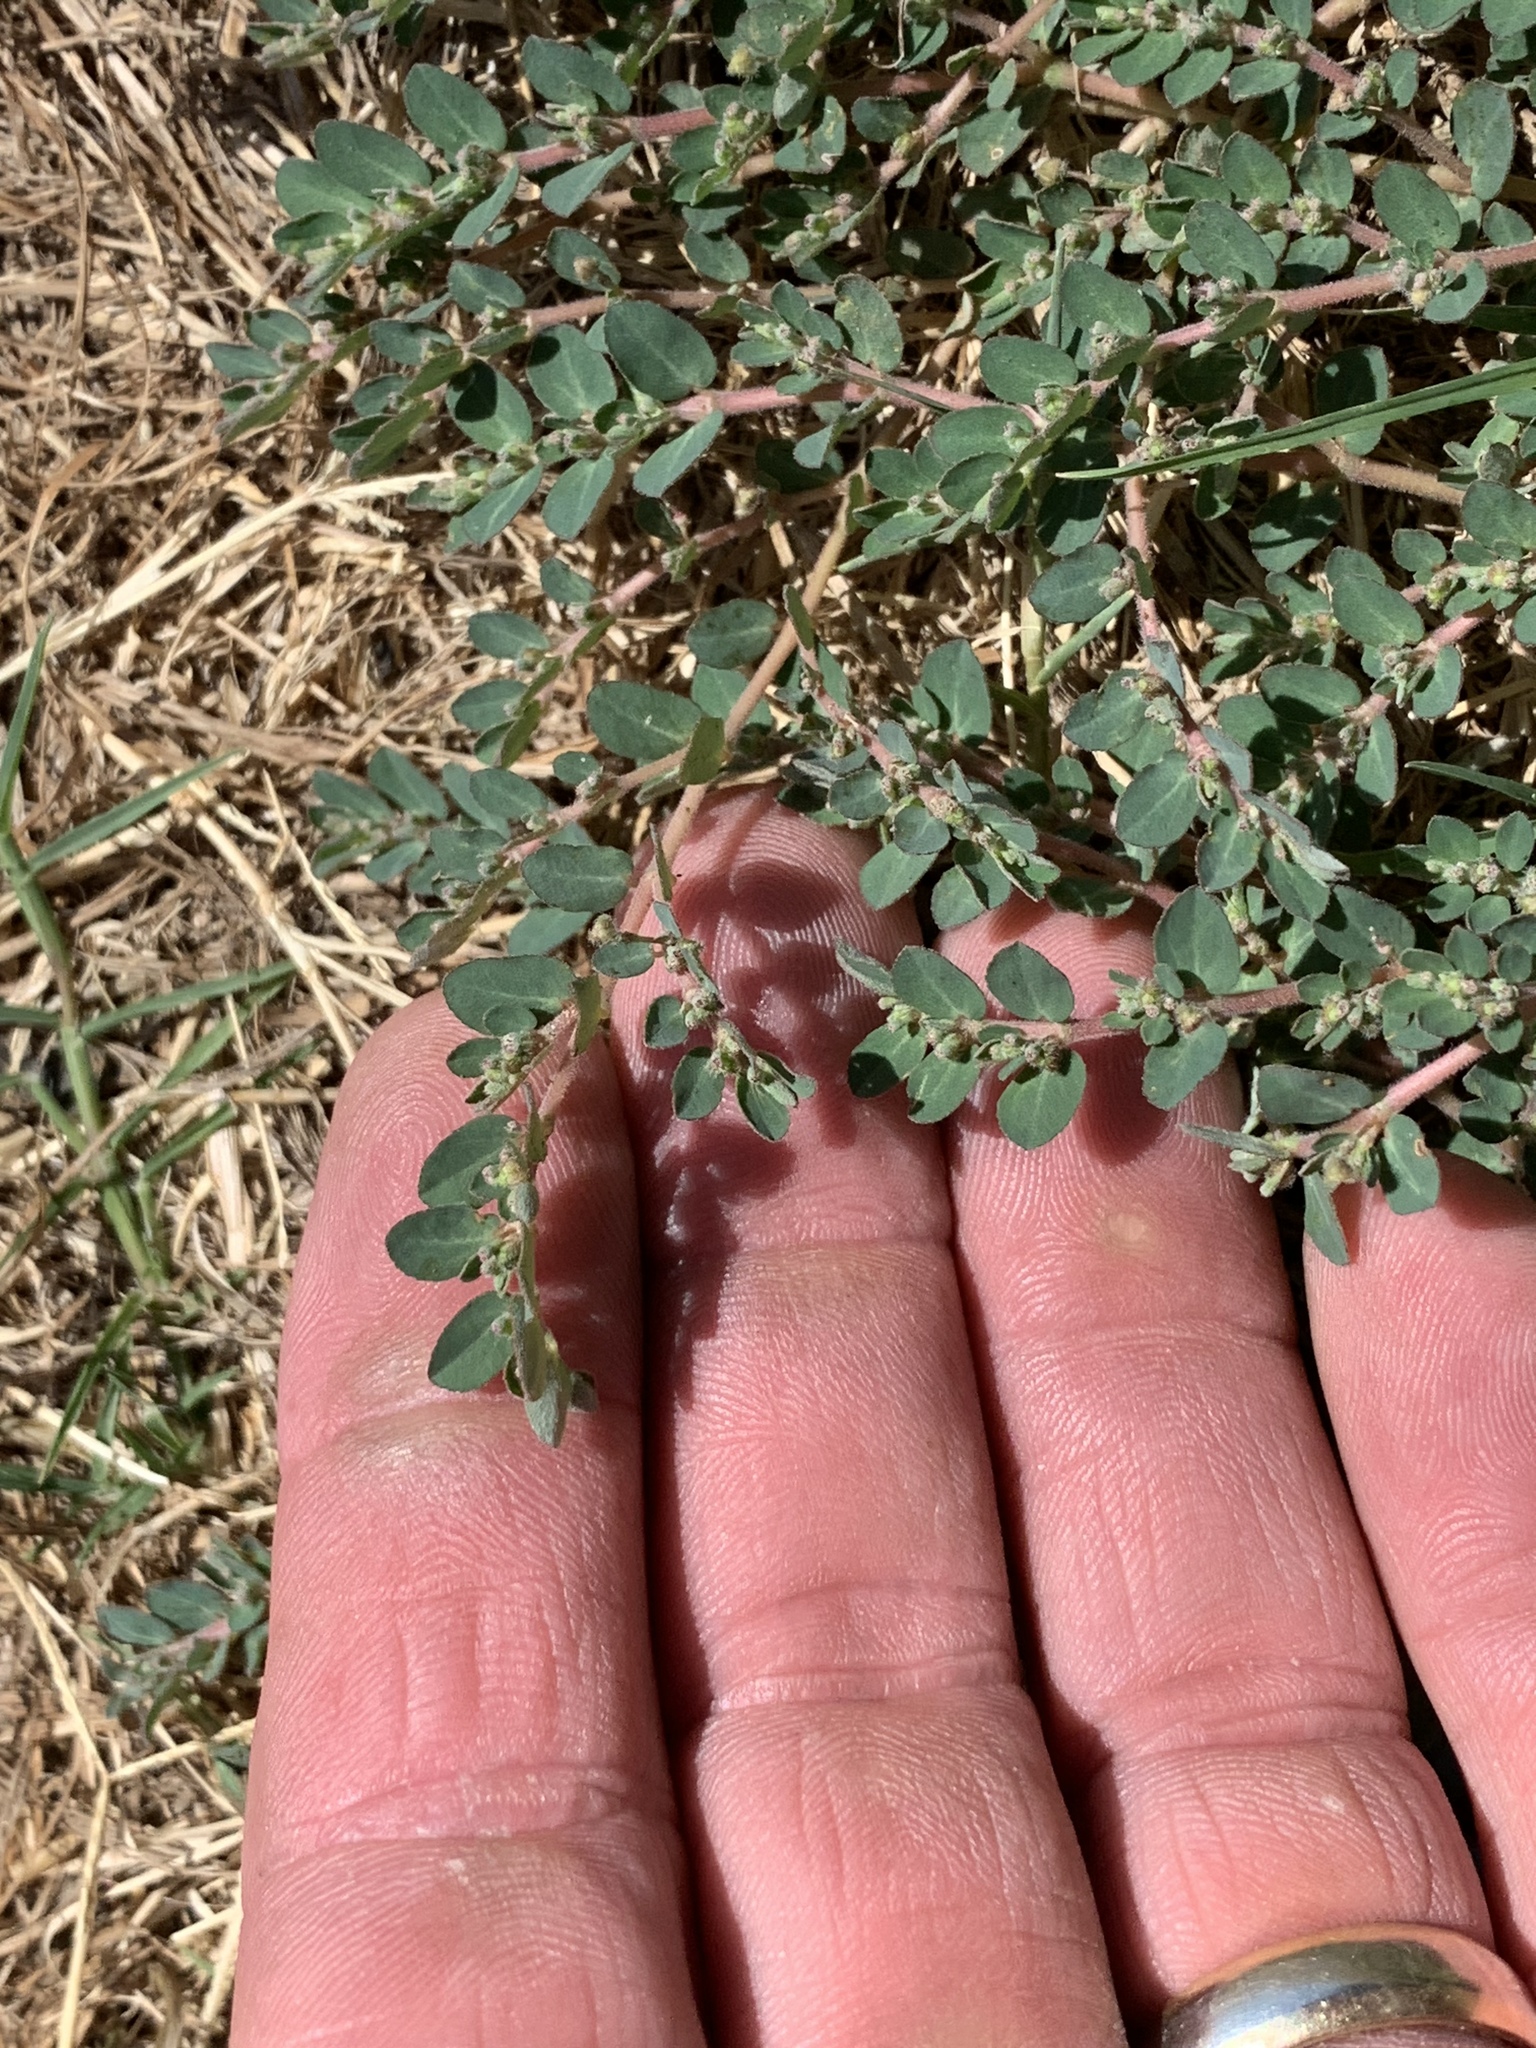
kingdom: Plantae
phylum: Tracheophyta
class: Magnoliopsida
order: Malpighiales
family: Euphorbiaceae
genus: Euphorbia
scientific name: Euphorbia prostrata
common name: Prostrate sandmat
